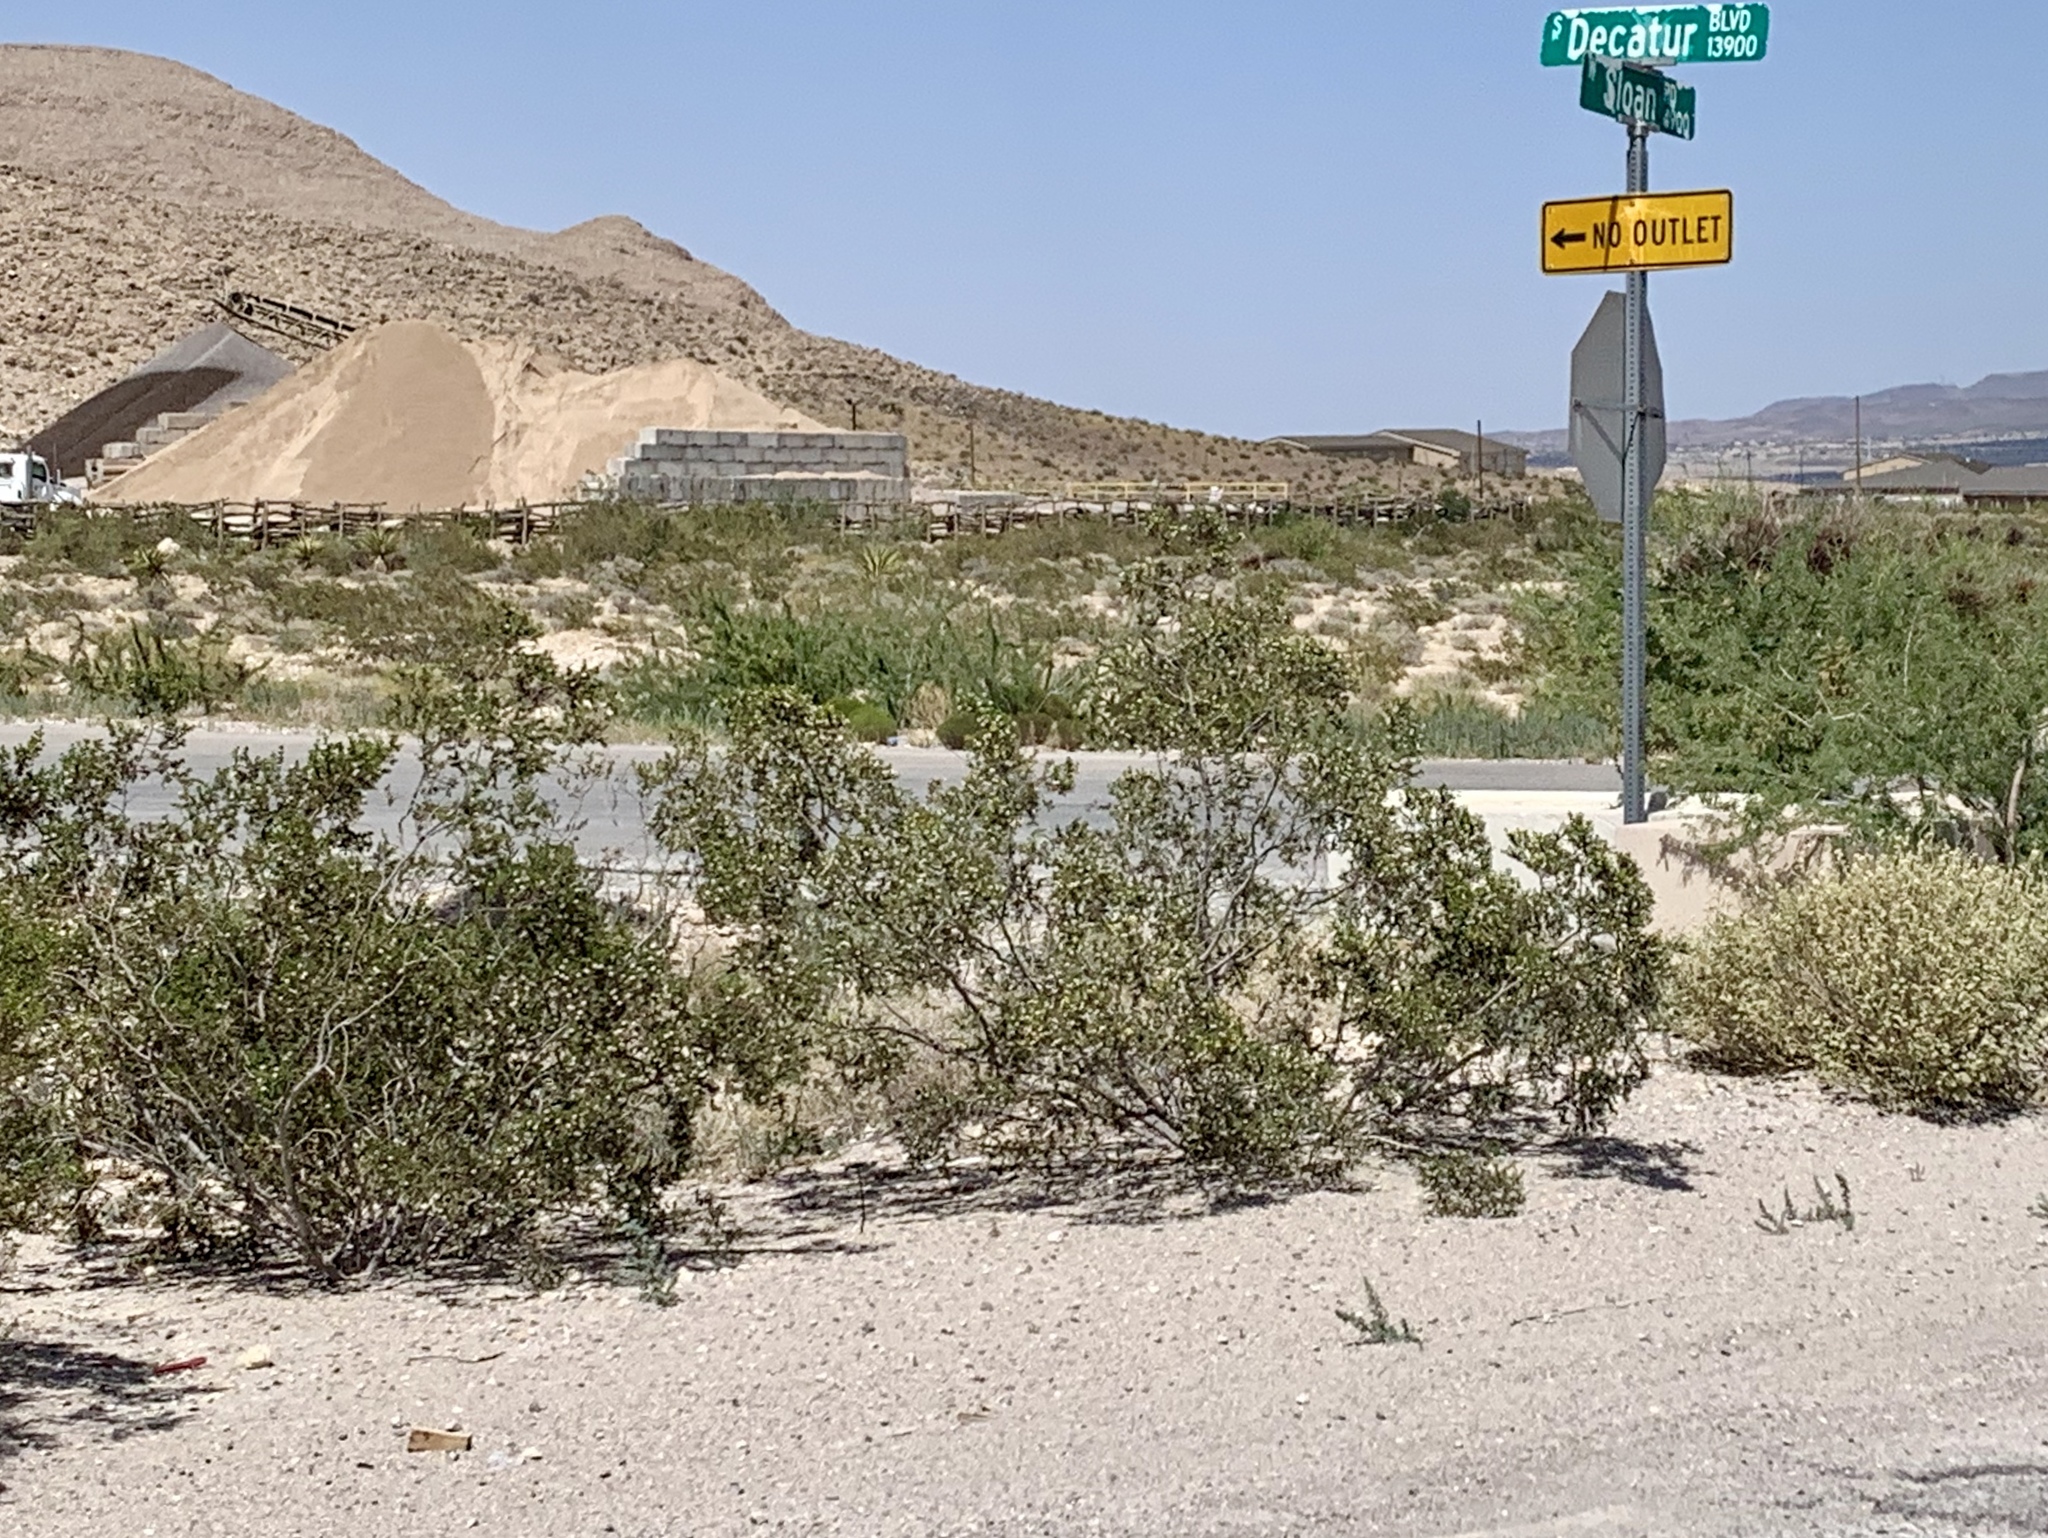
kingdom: Plantae
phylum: Tracheophyta
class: Magnoliopsida
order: Zygophyllales
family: Zygophyllaceae
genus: Larrea
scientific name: Larrea tridentata
